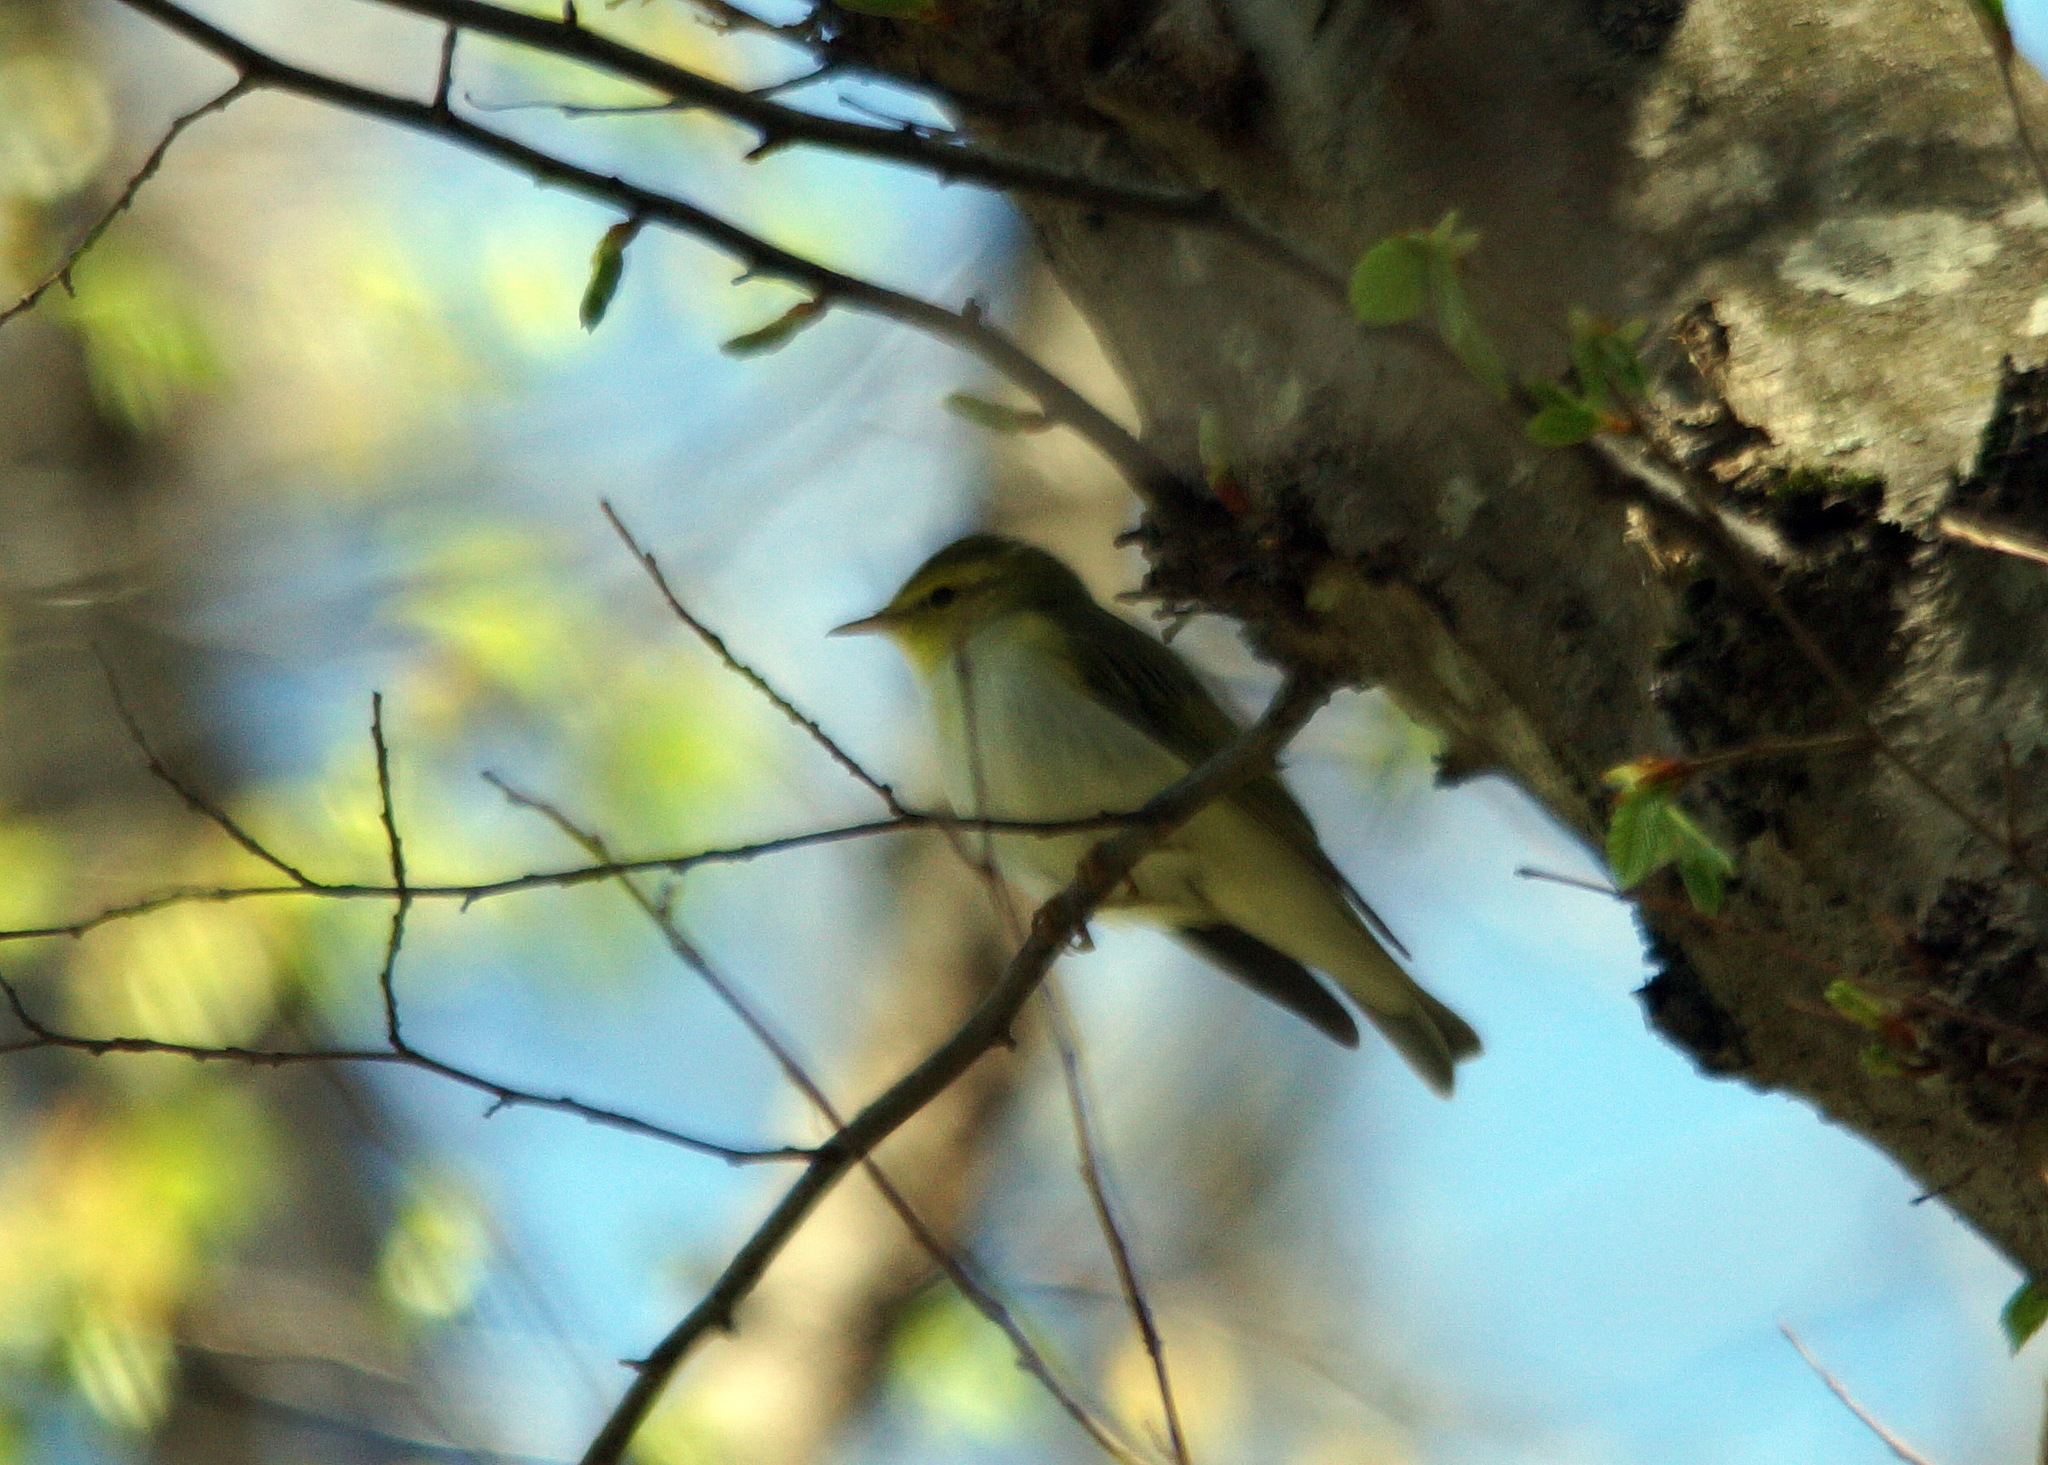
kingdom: Animalia
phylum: Chordata
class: Aves
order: Passeriformes
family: Phylloscopidae
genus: Phylloscopus
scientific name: Phylloscopus sibillatrix
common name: Wood warbler
